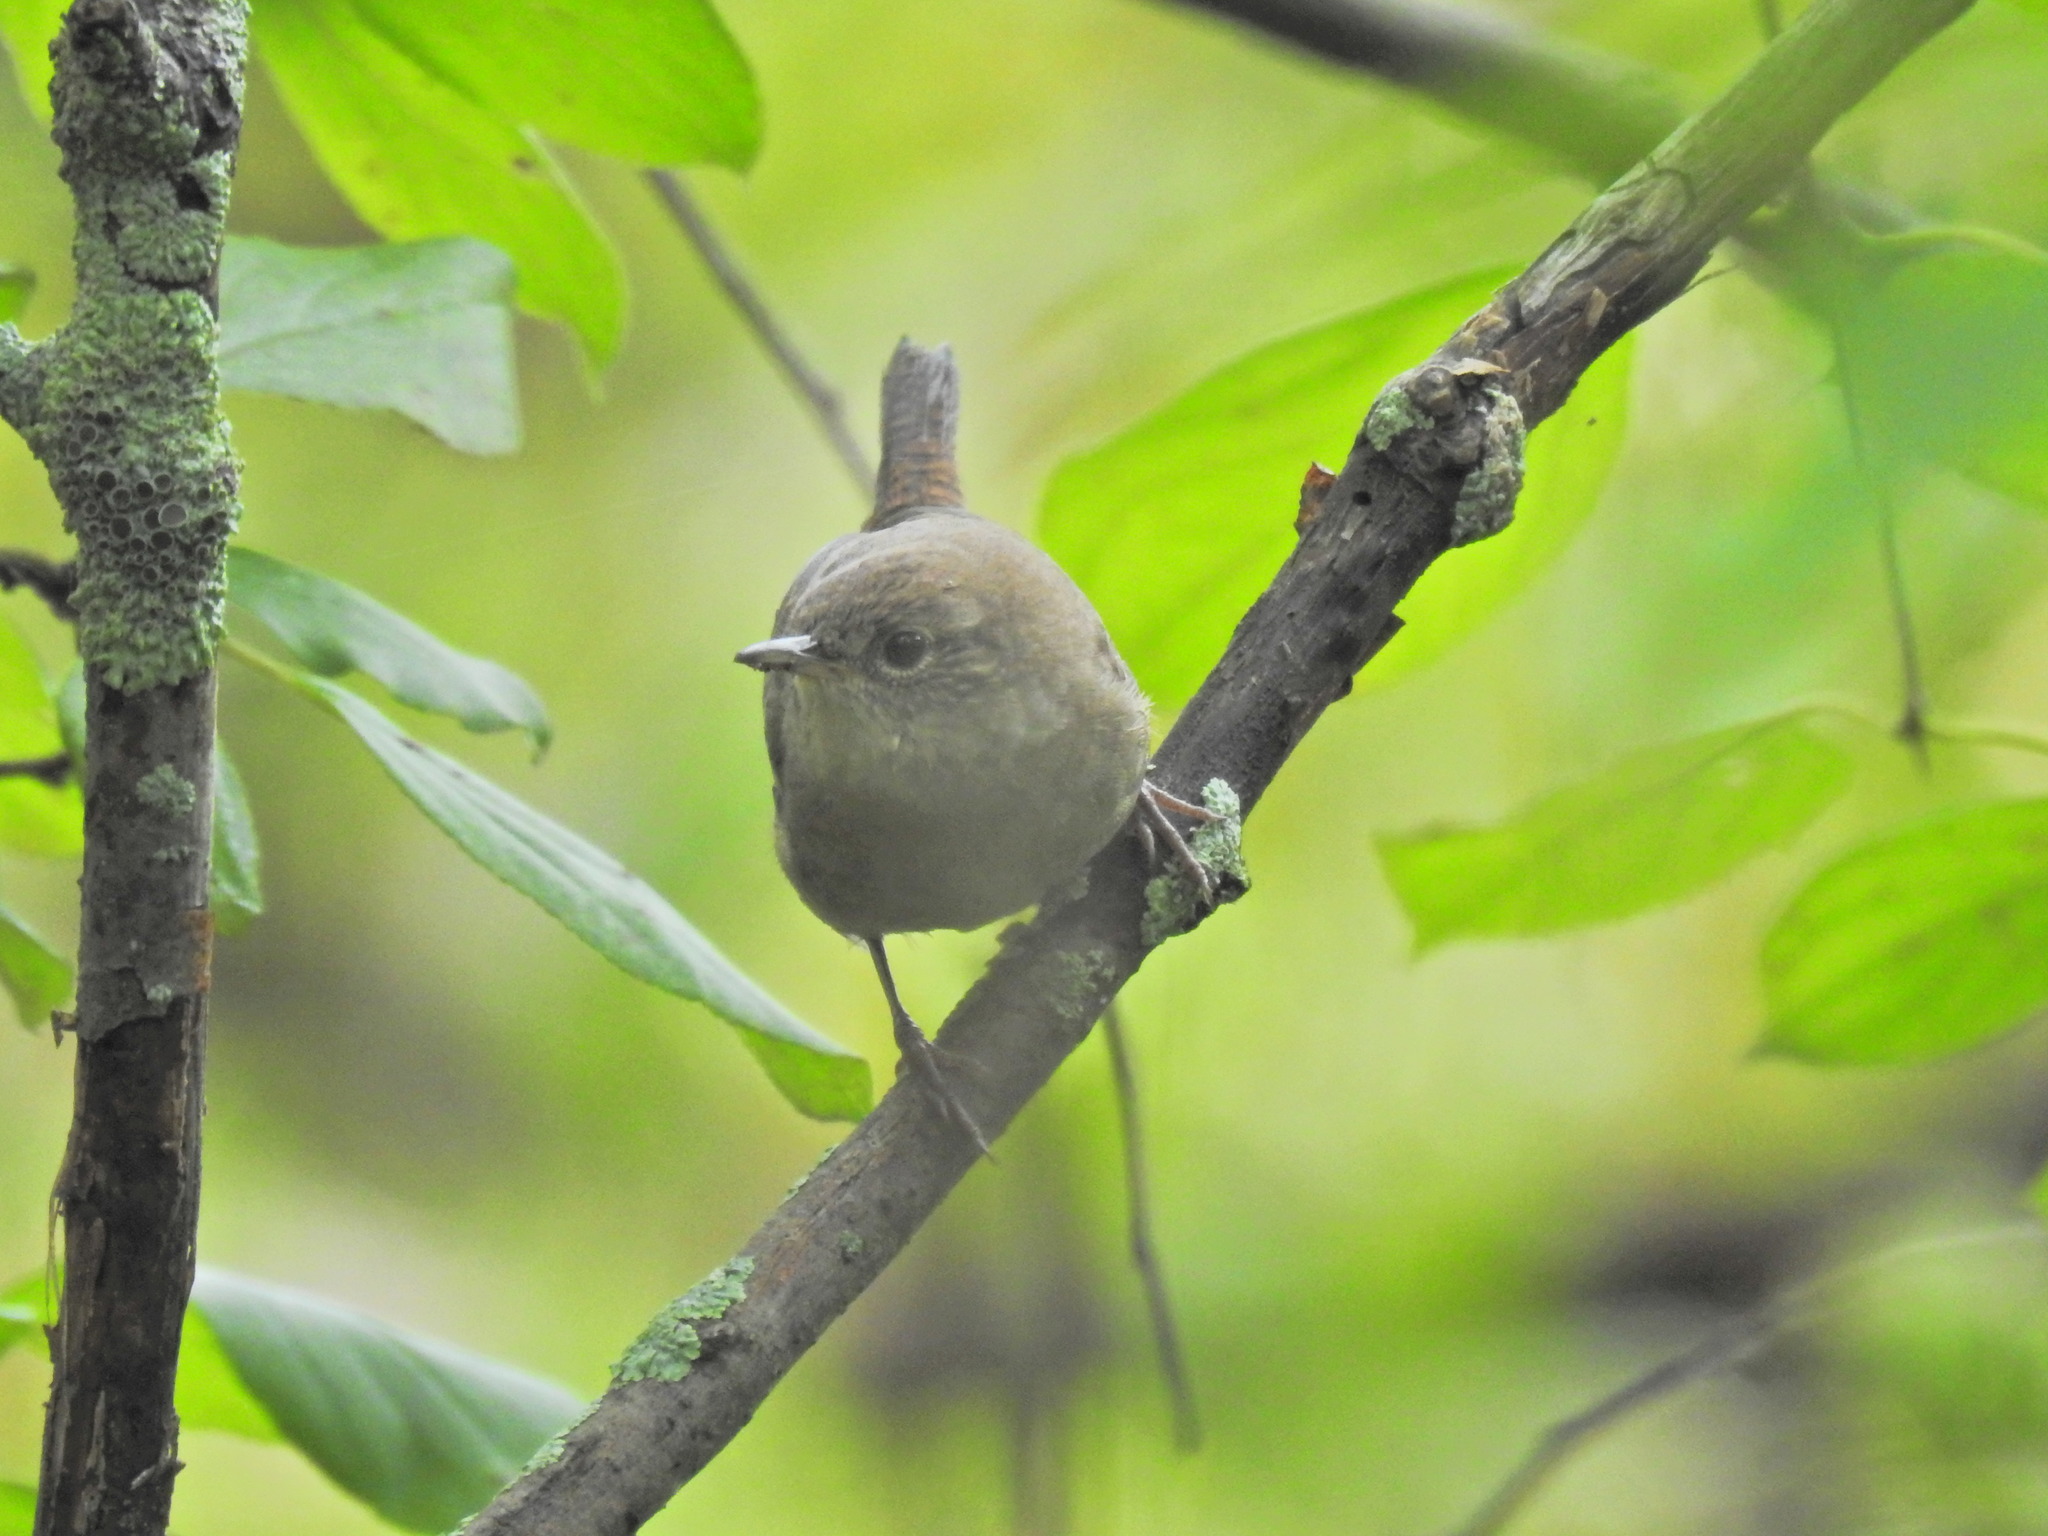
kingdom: Animalia
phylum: Chordata
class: Aves
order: Passeriformes
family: Troglodytidae
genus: Troglodytes
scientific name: Troglodytes aedon
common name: House wren
